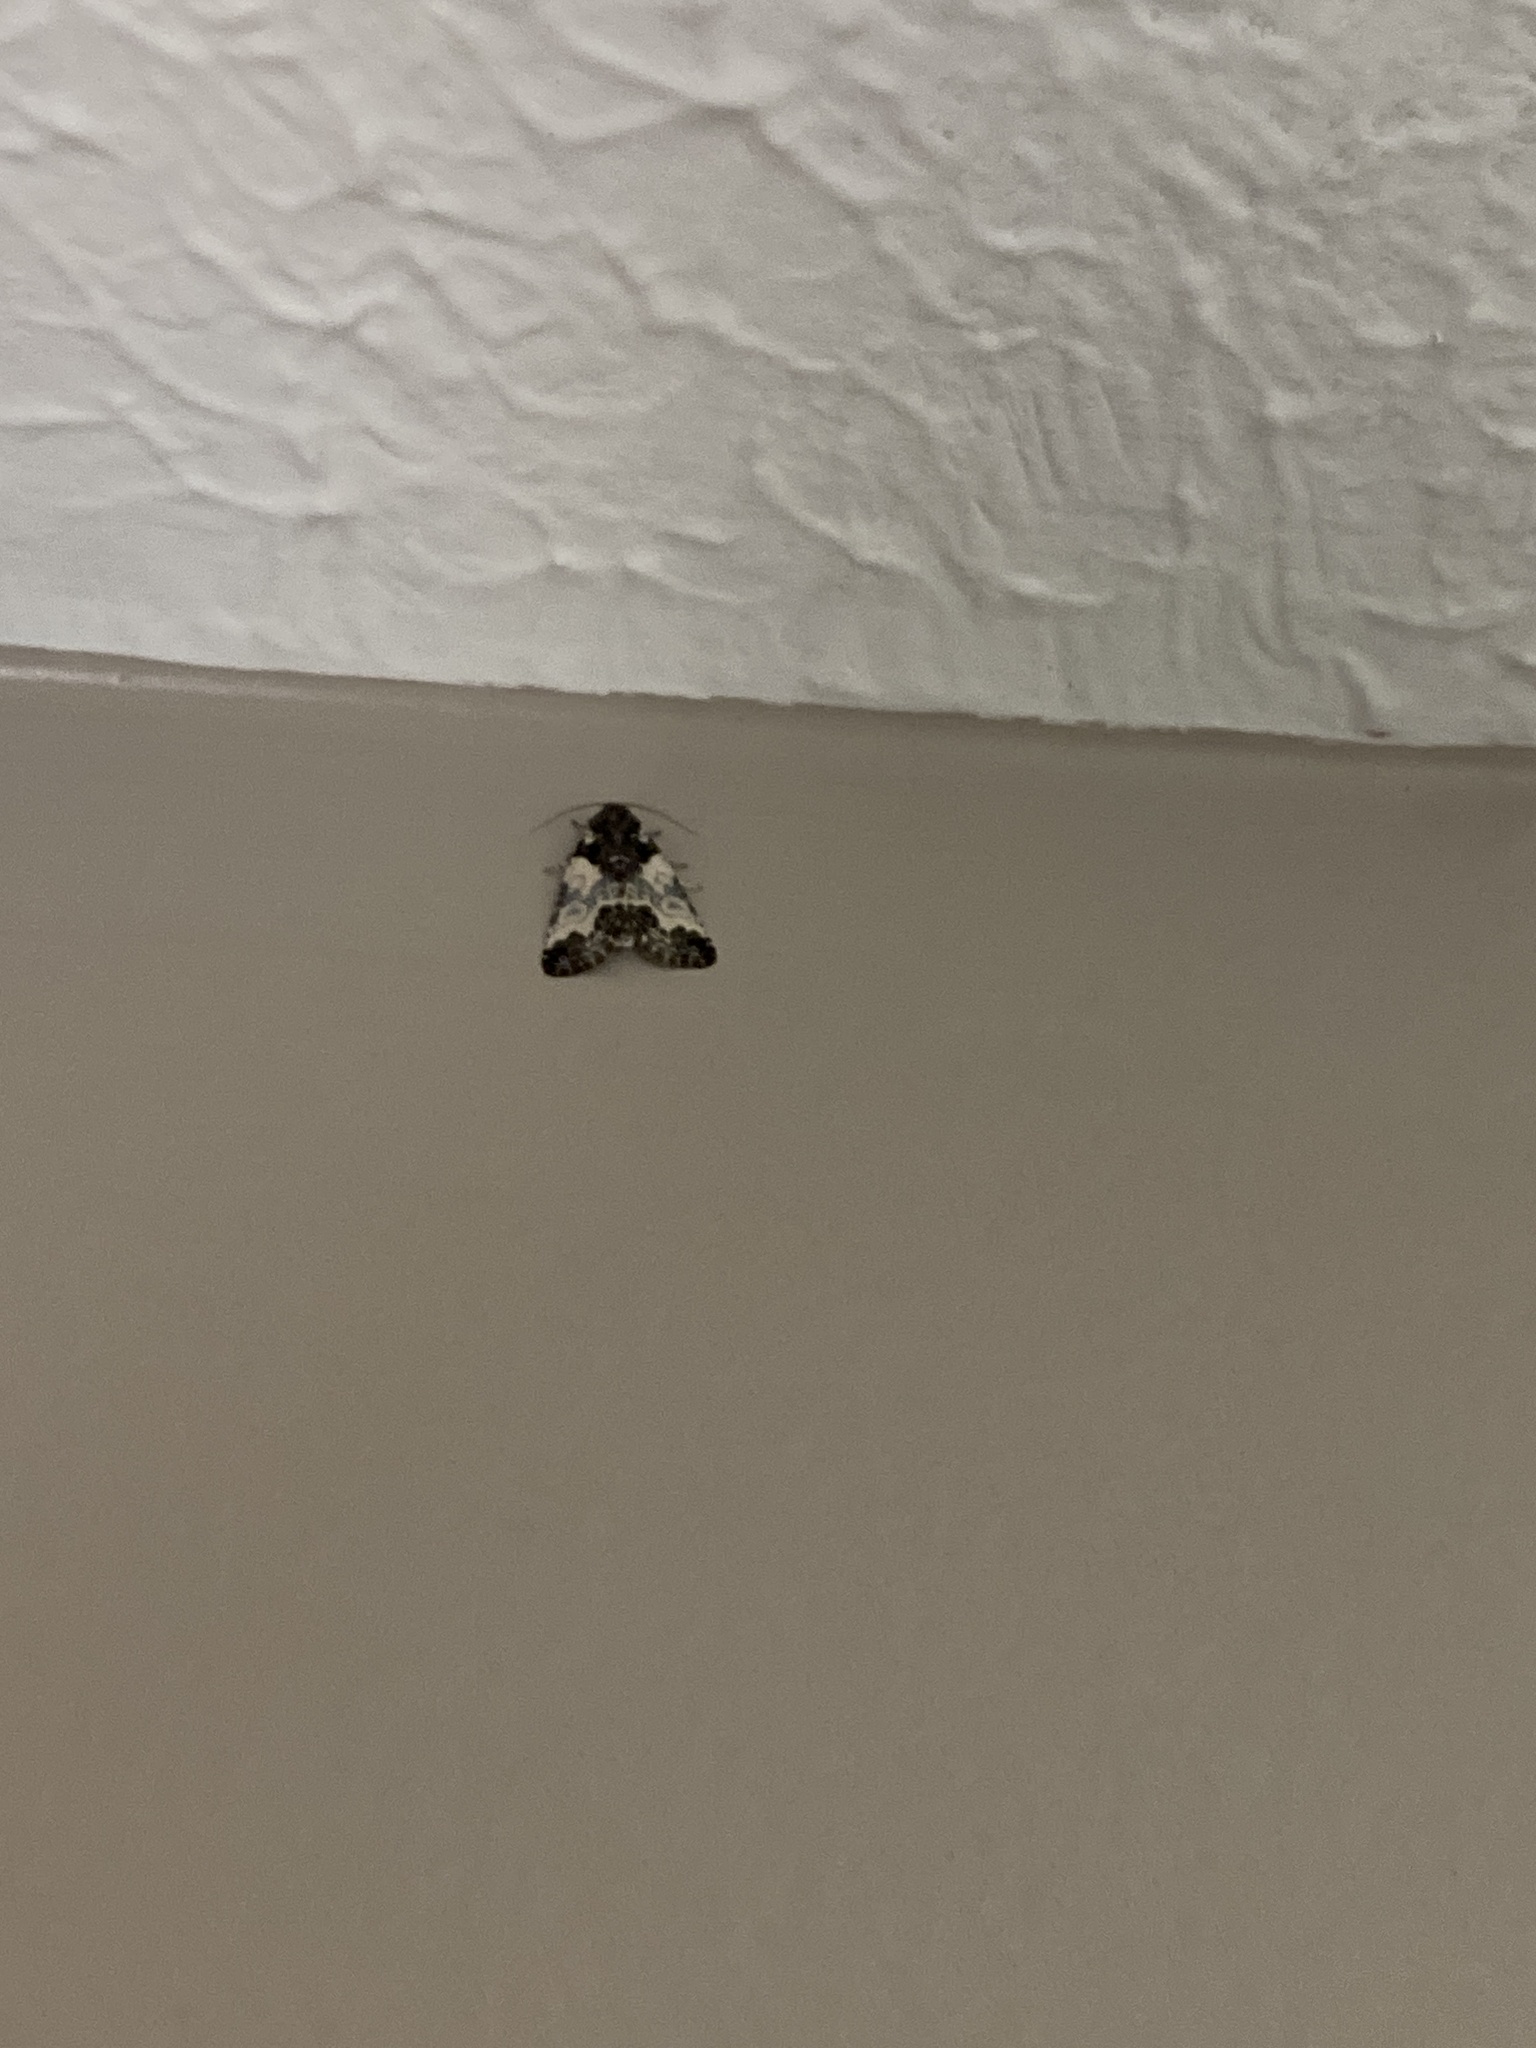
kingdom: Animalia
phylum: Arthropoda
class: Insecta
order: Lepidoptera
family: Noctuidae
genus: Cerma
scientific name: Cerma cerintha
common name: Tufted bird-dropping moth
